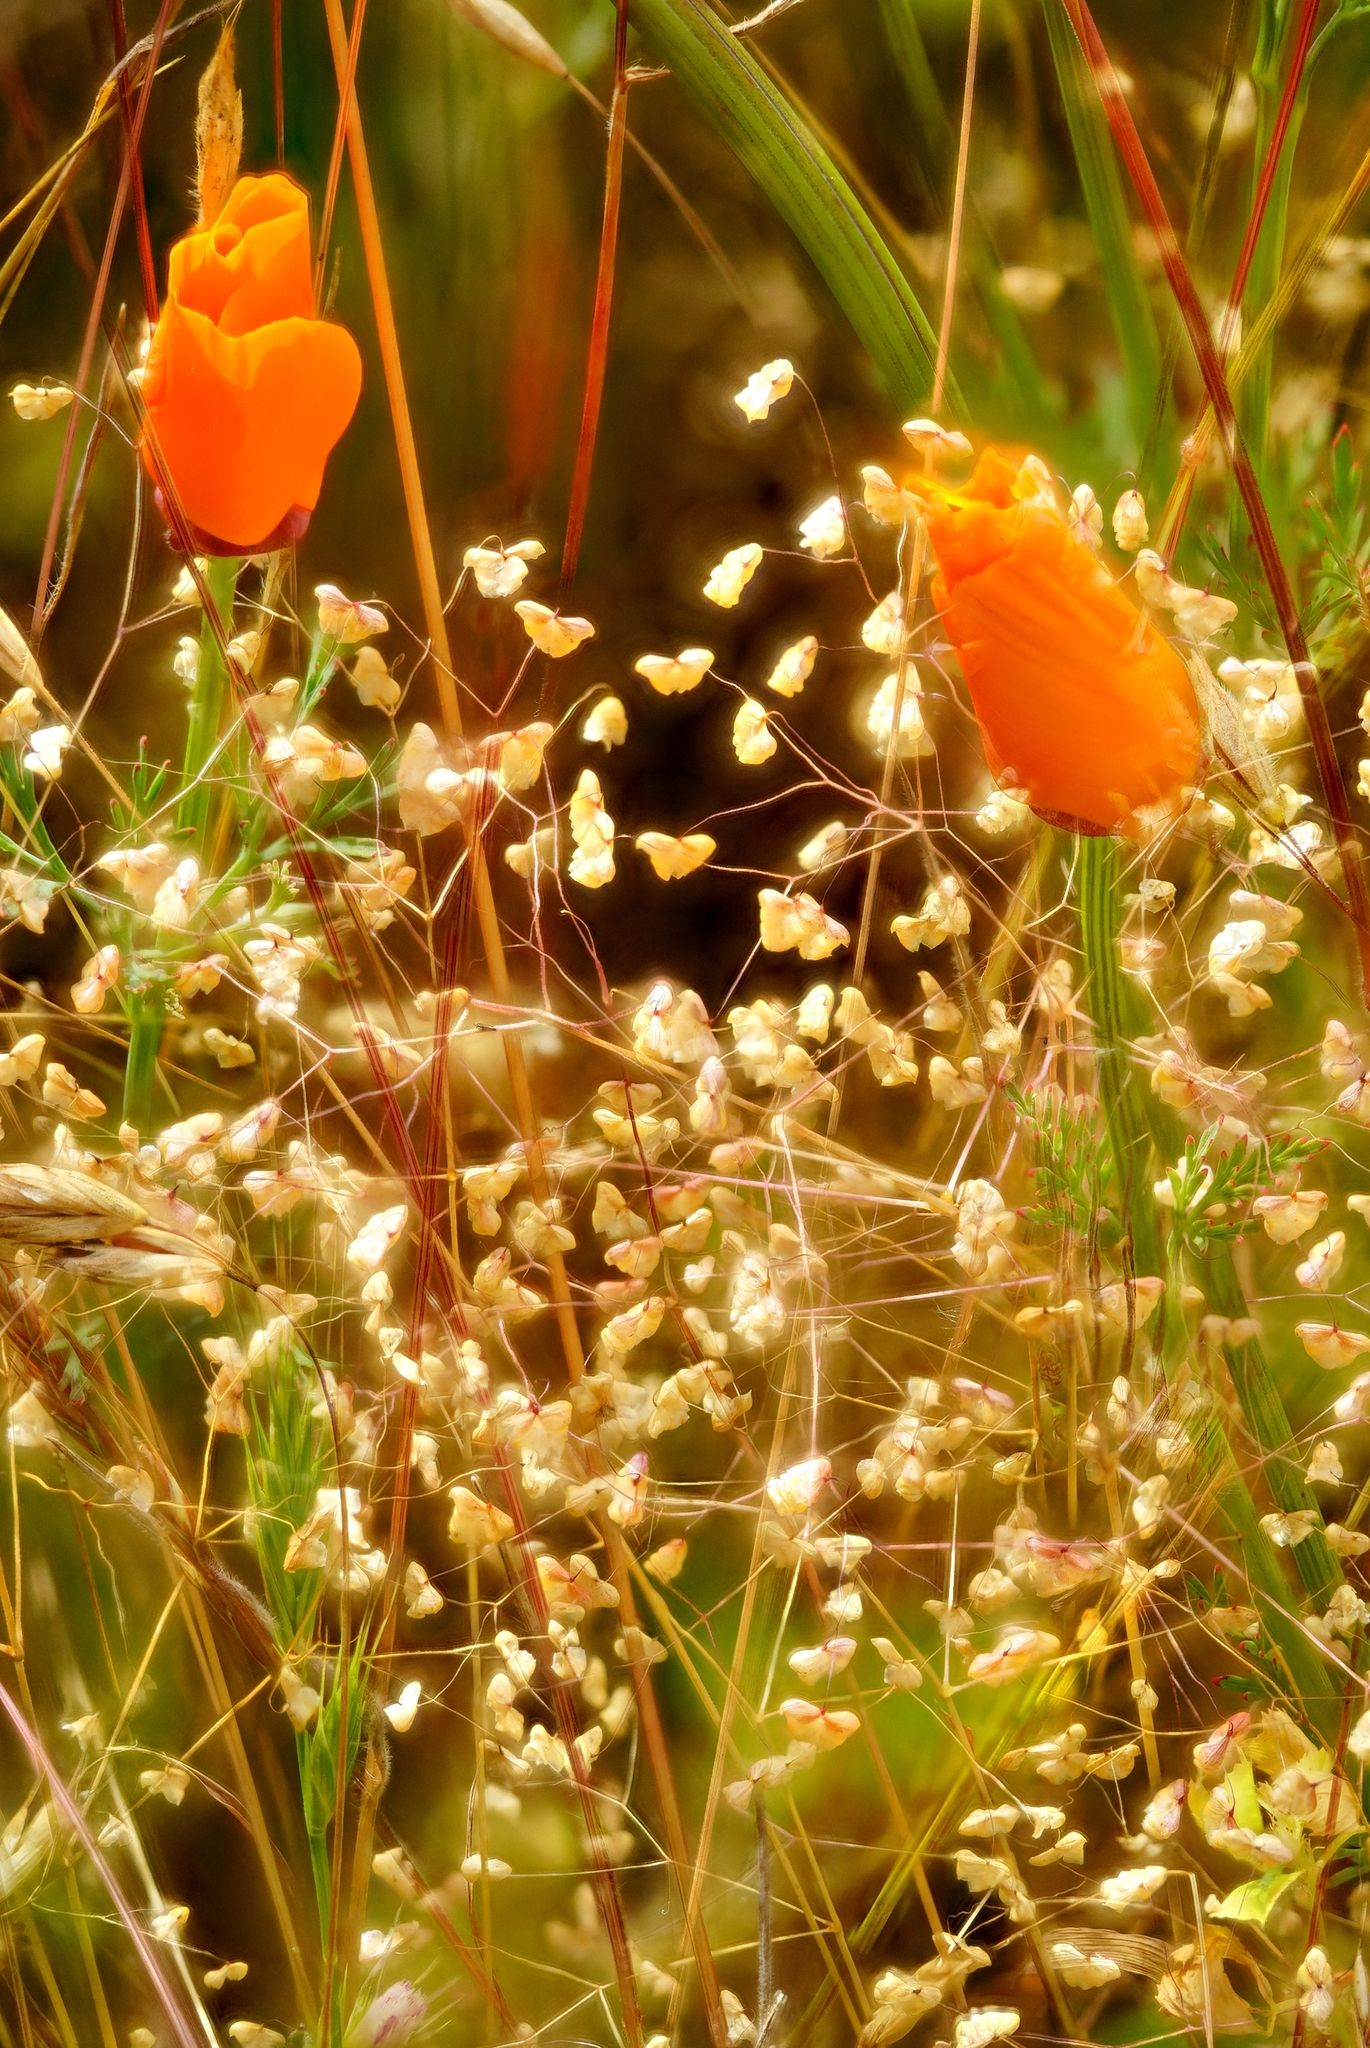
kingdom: Plantae
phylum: Tracheophyta
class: Liliopsida
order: Poales
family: Poaceae
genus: Briza
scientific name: Briza minor
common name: Lesser quaking-grass
